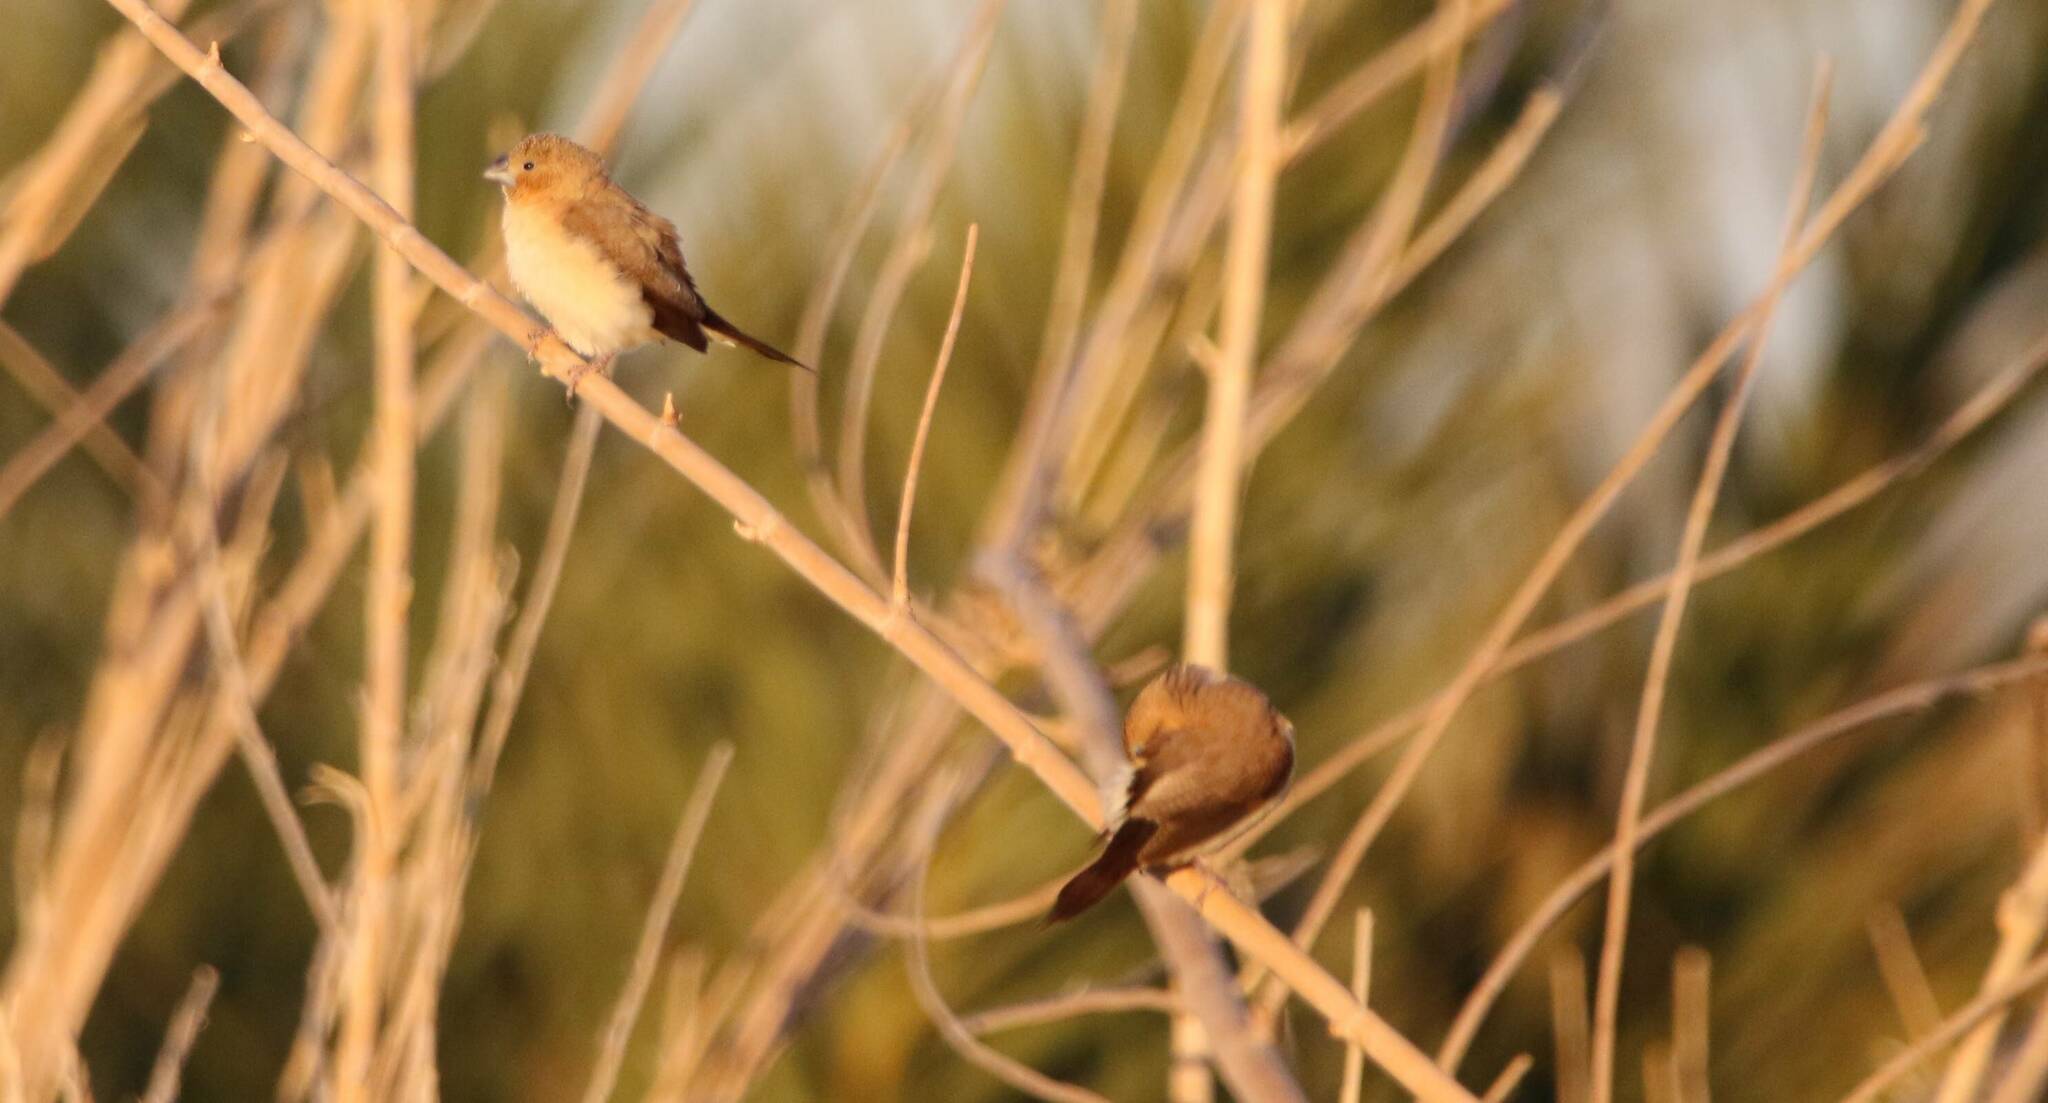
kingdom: Animalia
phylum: Chordata
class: Aves
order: Passeriformes
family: Estrildidae
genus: Euodice
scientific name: Euodice cantans
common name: African silverbill
